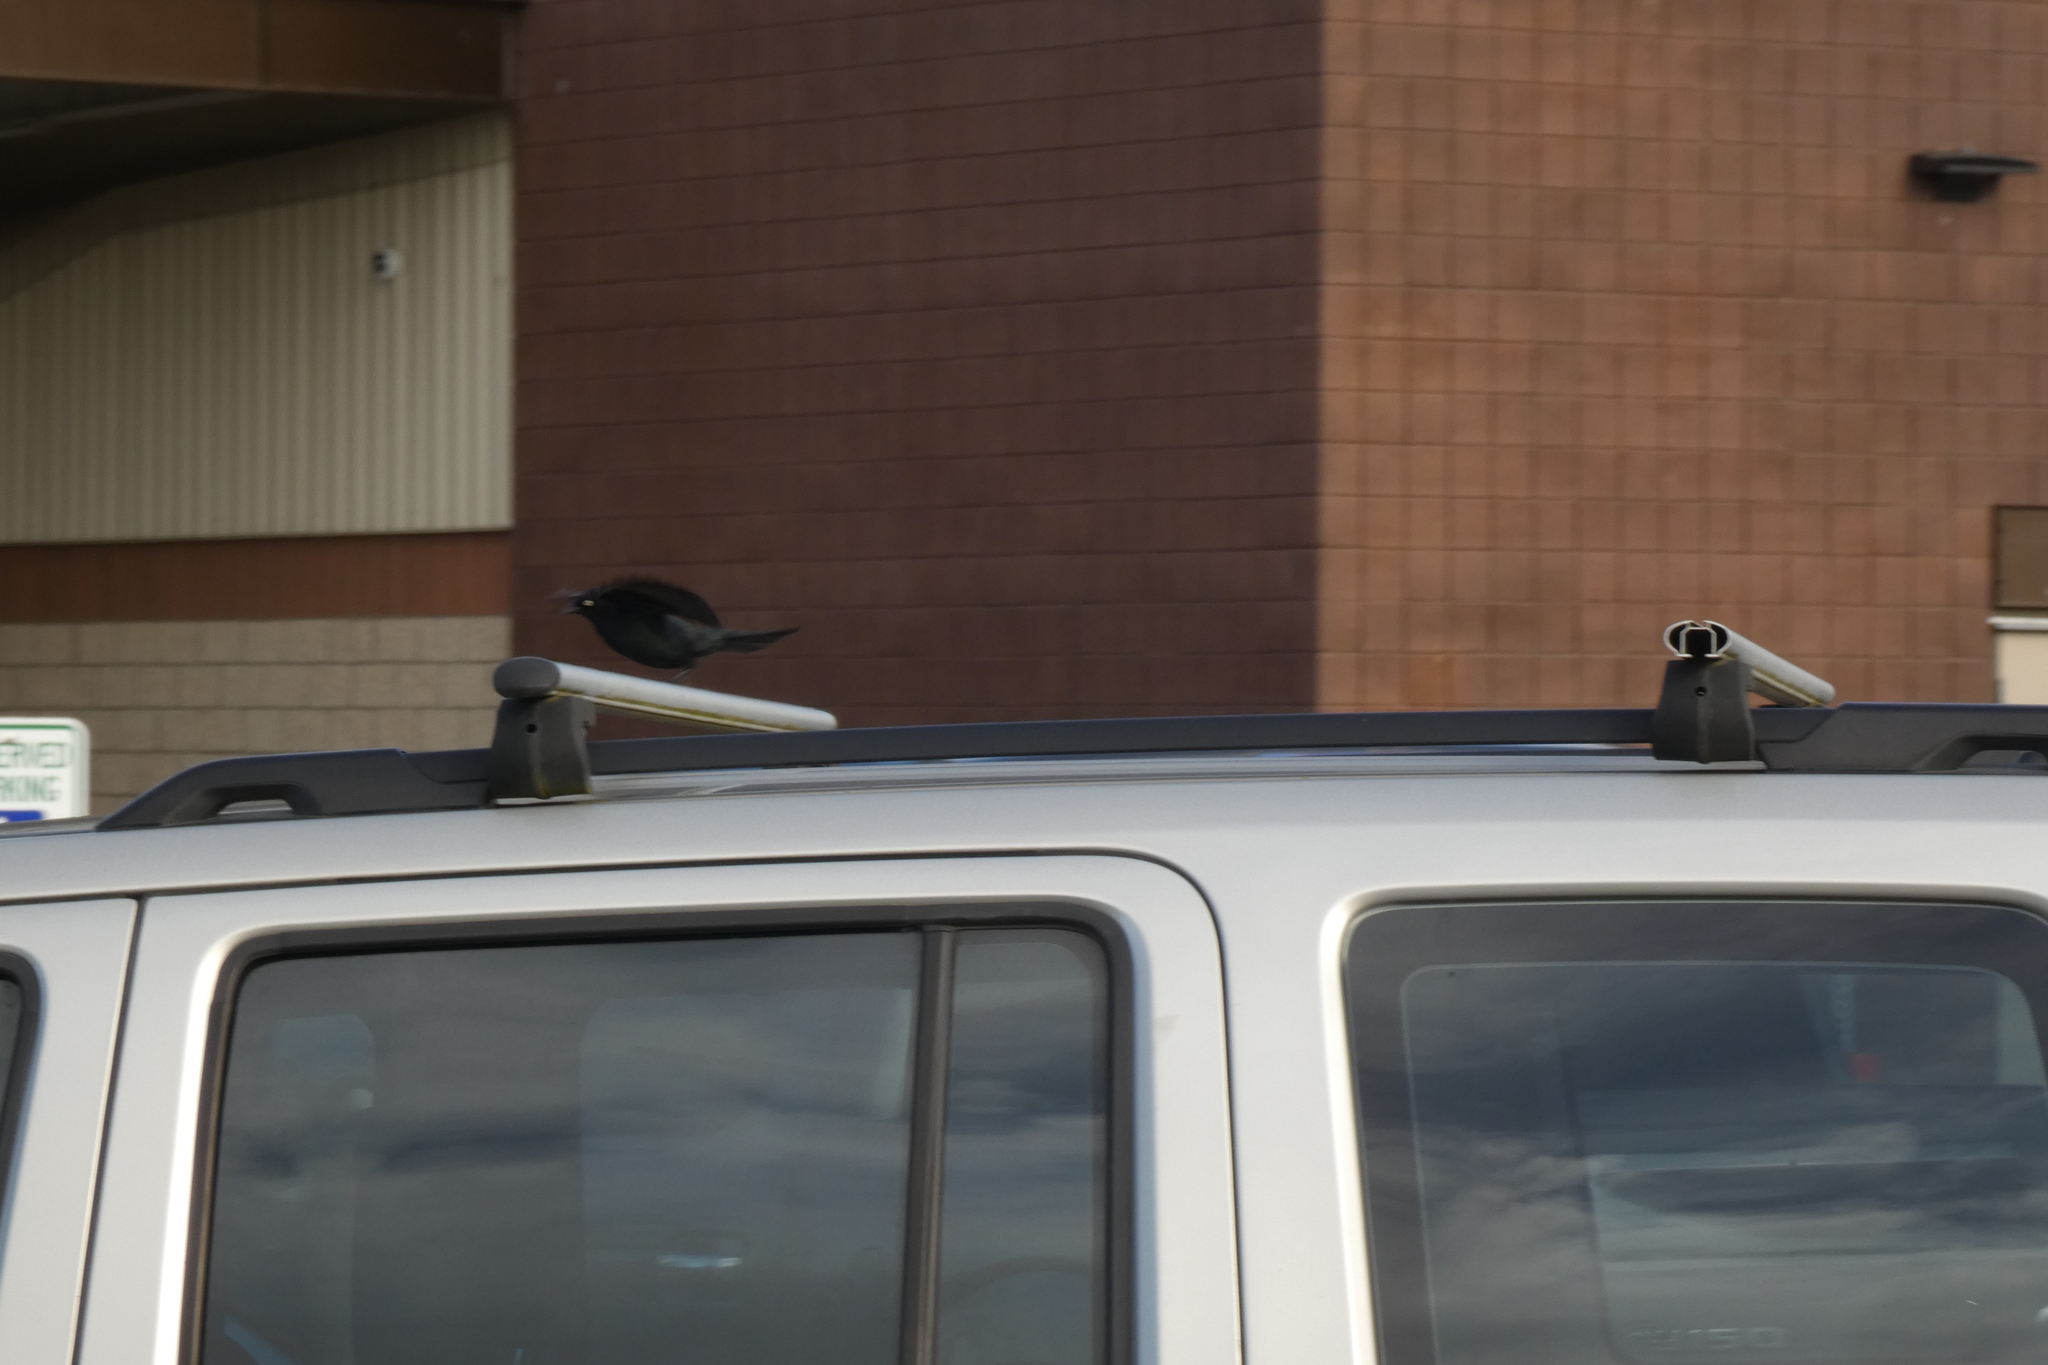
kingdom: Animalia
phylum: Chordata
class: Aves
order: Passeriformes
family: Icteridae
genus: Euphagus
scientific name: Euphagus cyanocephalus
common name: Brewer's blackbird
